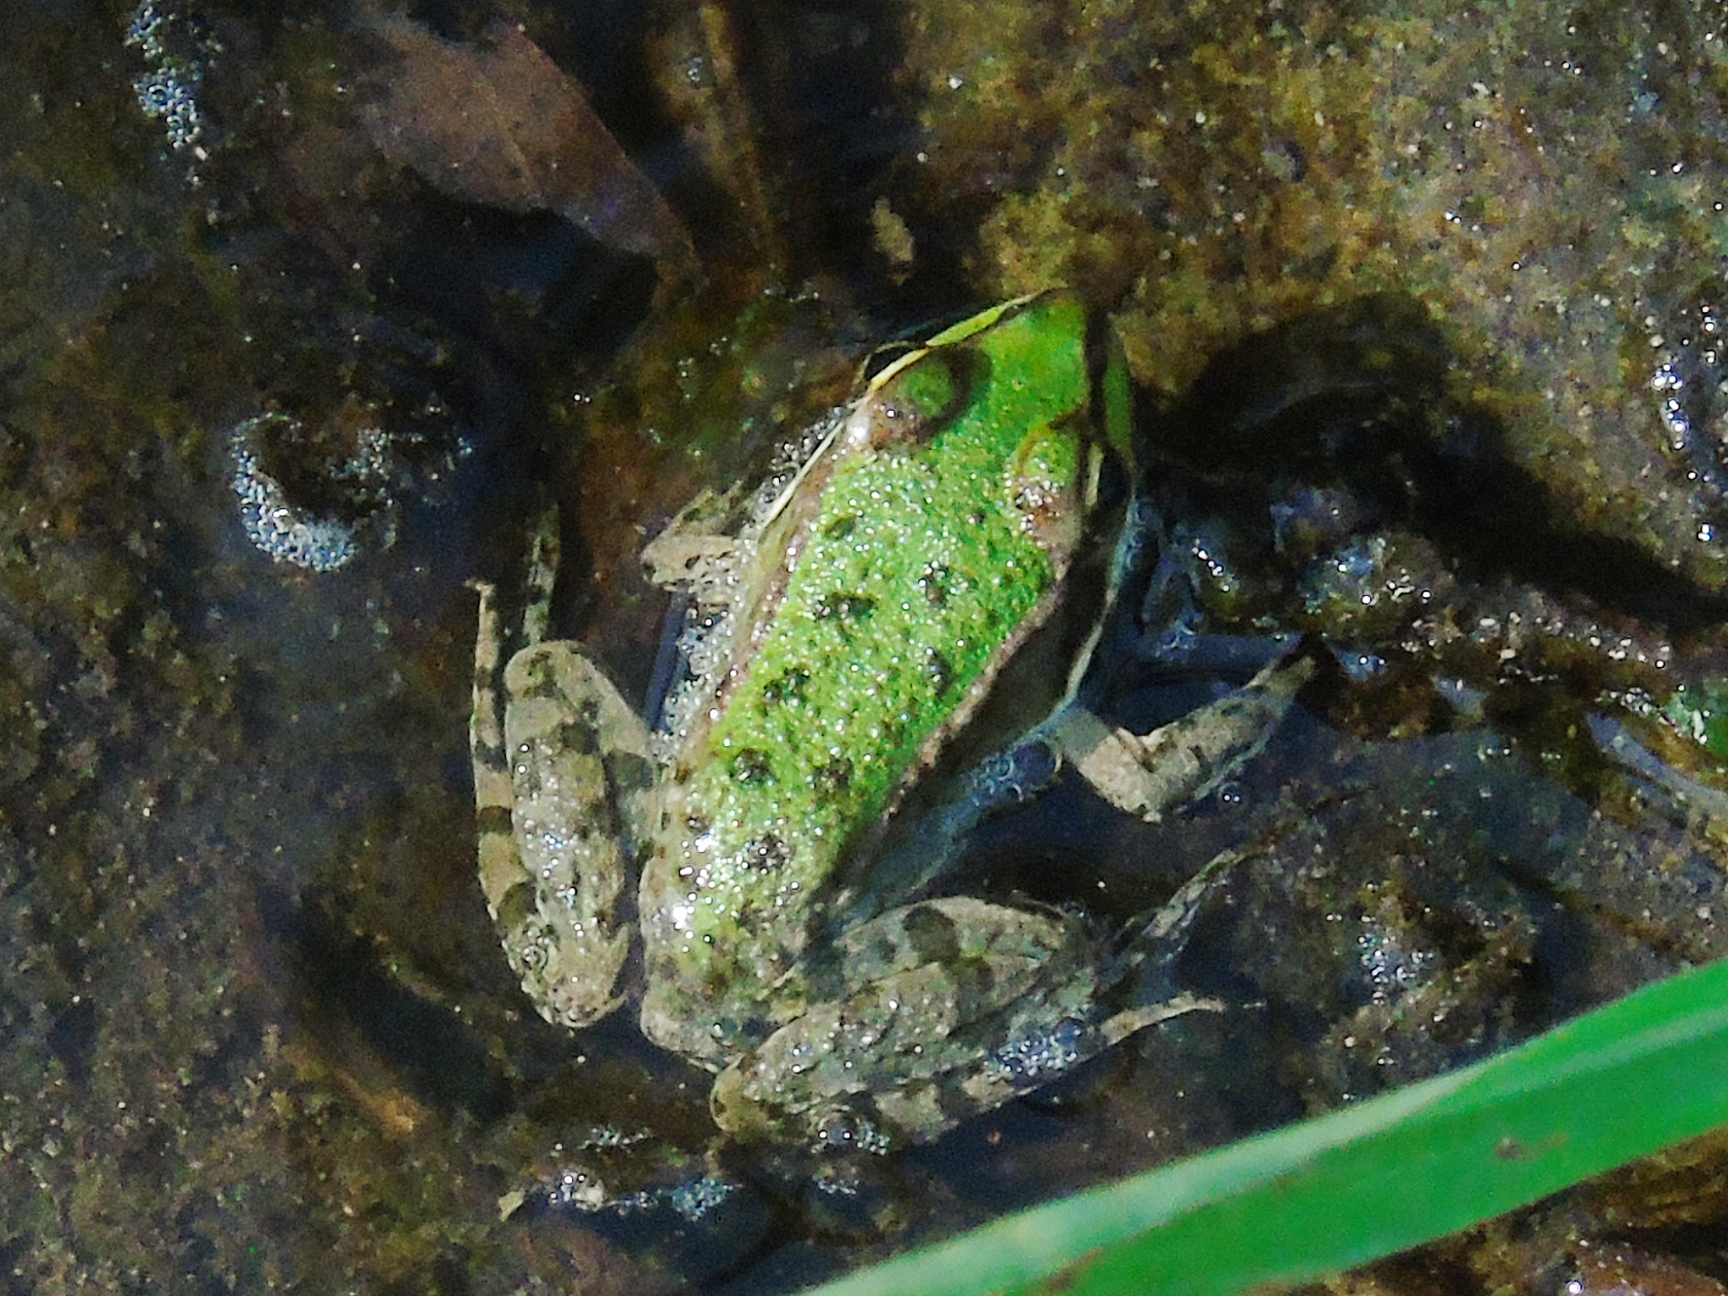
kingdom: Animalia
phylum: Chordata
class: Amphibia
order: Anura
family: Ranidae
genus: Pelophylax
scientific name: Pelophylax ridibundus
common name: Marsh frog
